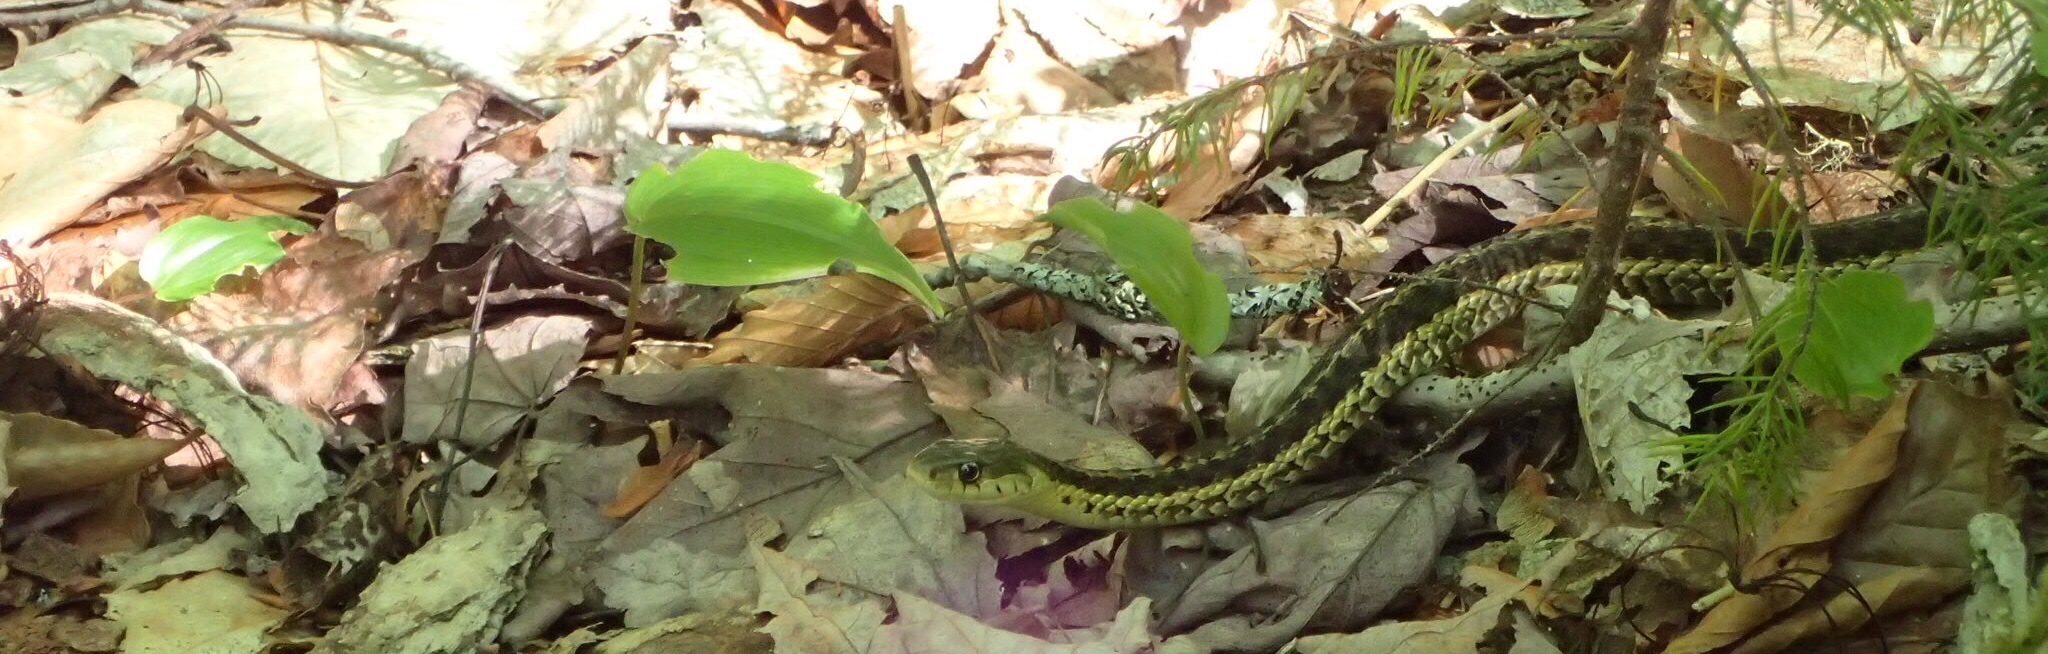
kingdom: Animalia
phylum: Chordata
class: Squamata
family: Colubridae
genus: Thamnophis
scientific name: Thamnophis sirtalis
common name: Common garter snake
